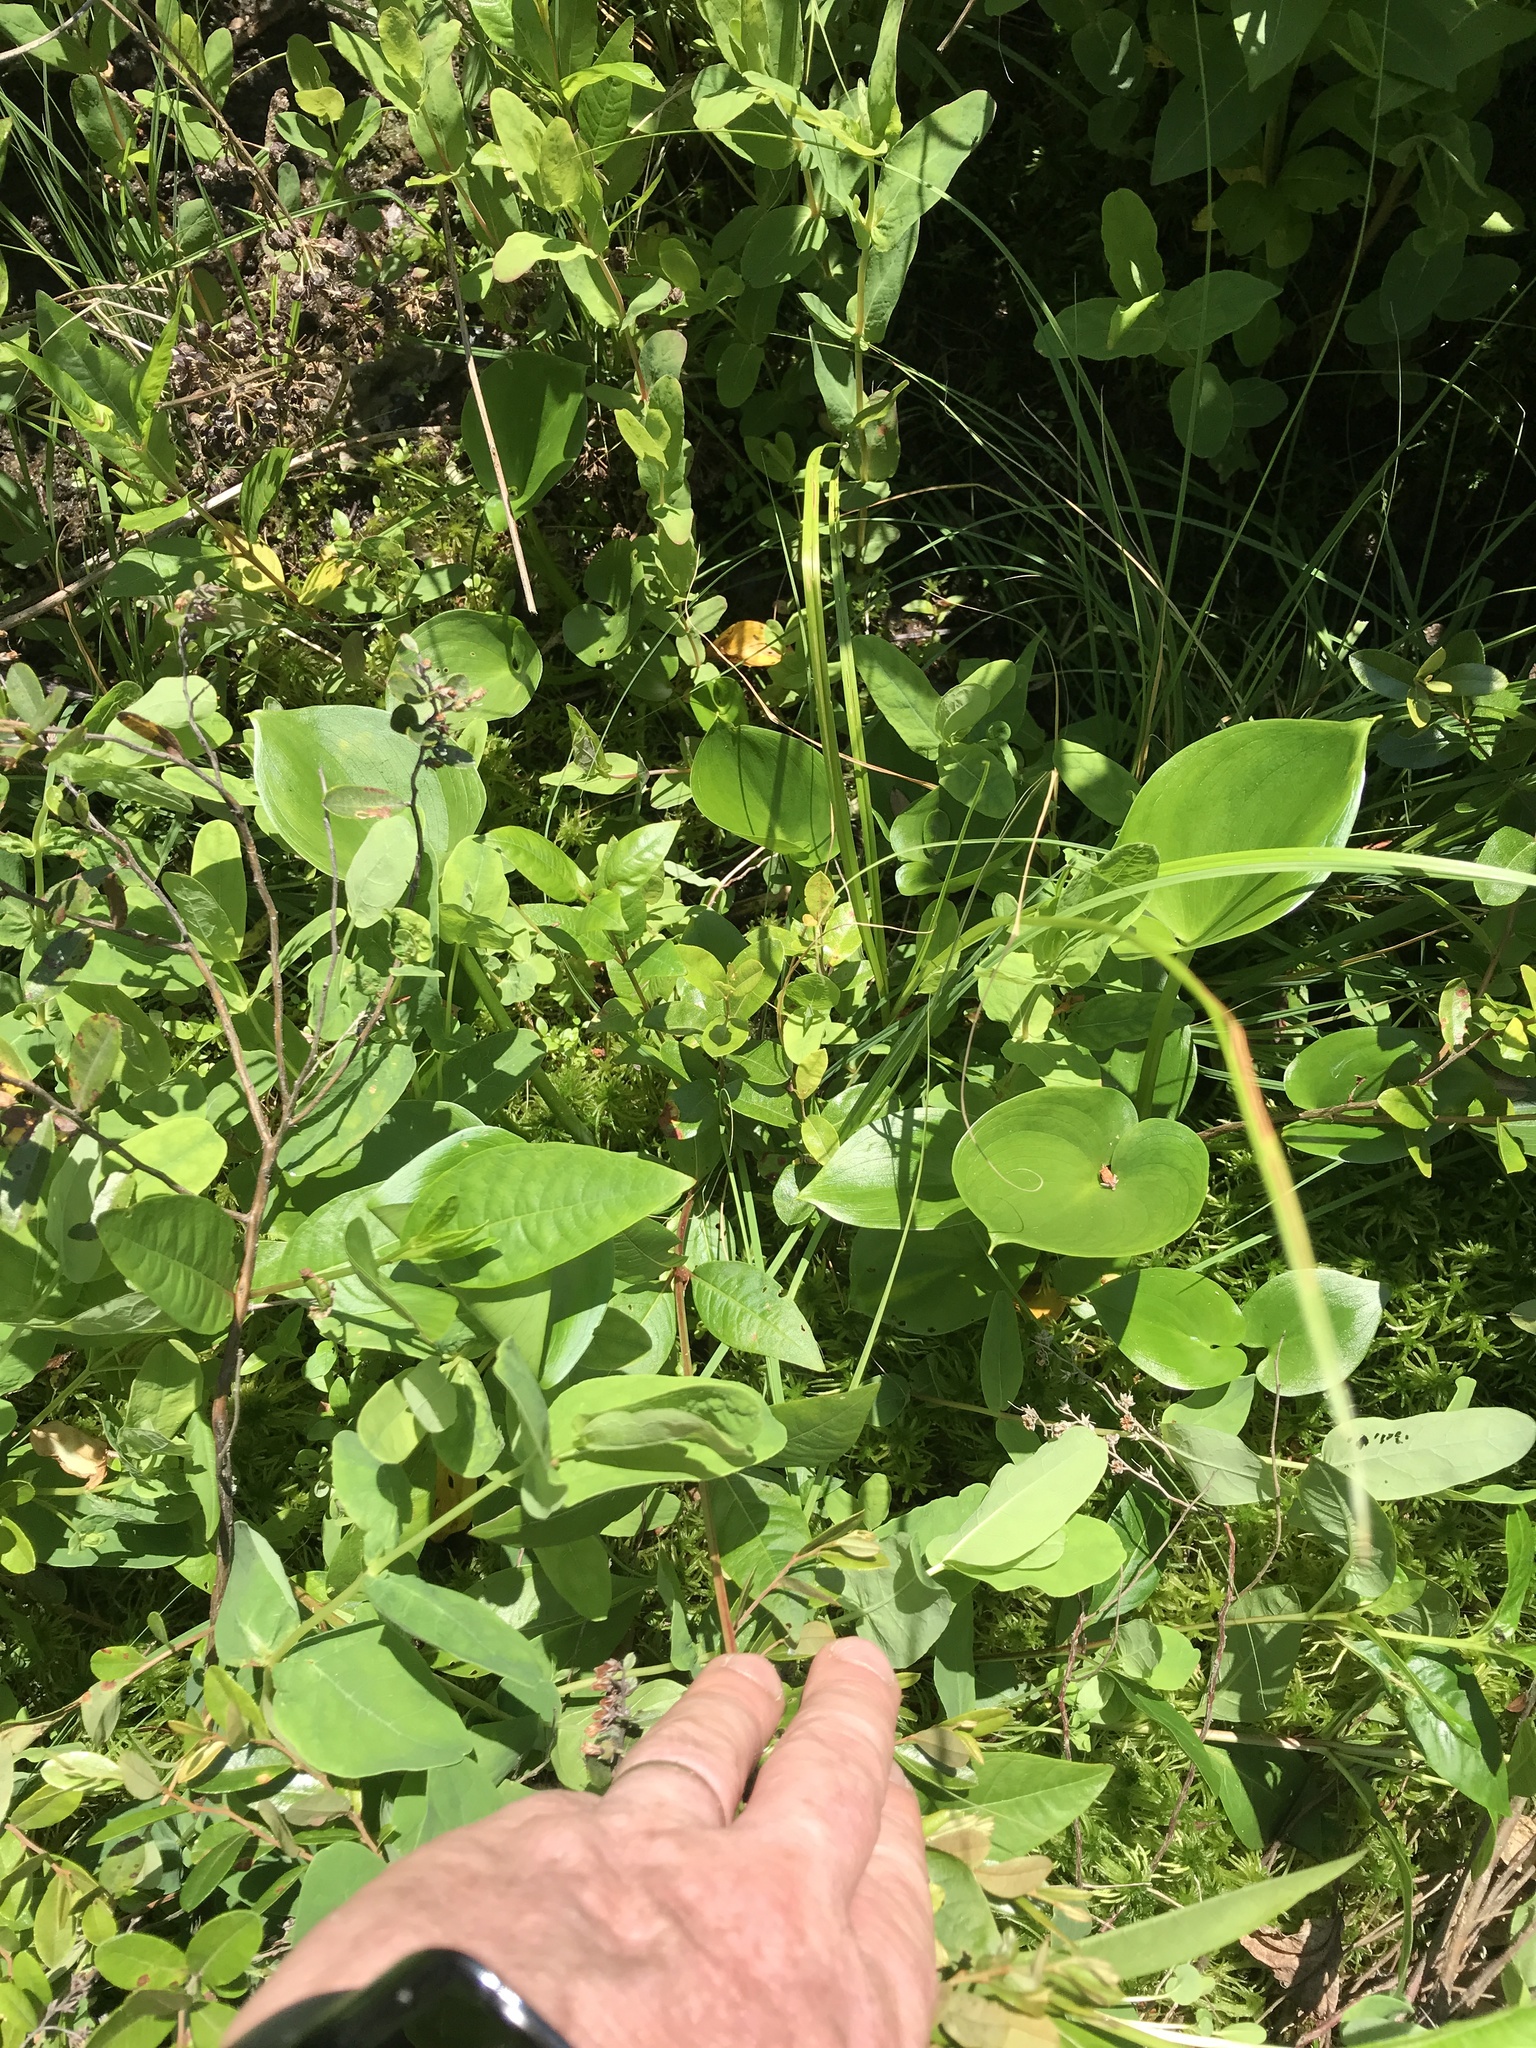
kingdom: Plantae
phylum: Tracheophyta
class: Magnoliopsida
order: Malpighiales
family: Hypericaceae
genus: Triadenum
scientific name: Triadenum virginicum
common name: Marsh st. john's-wort
